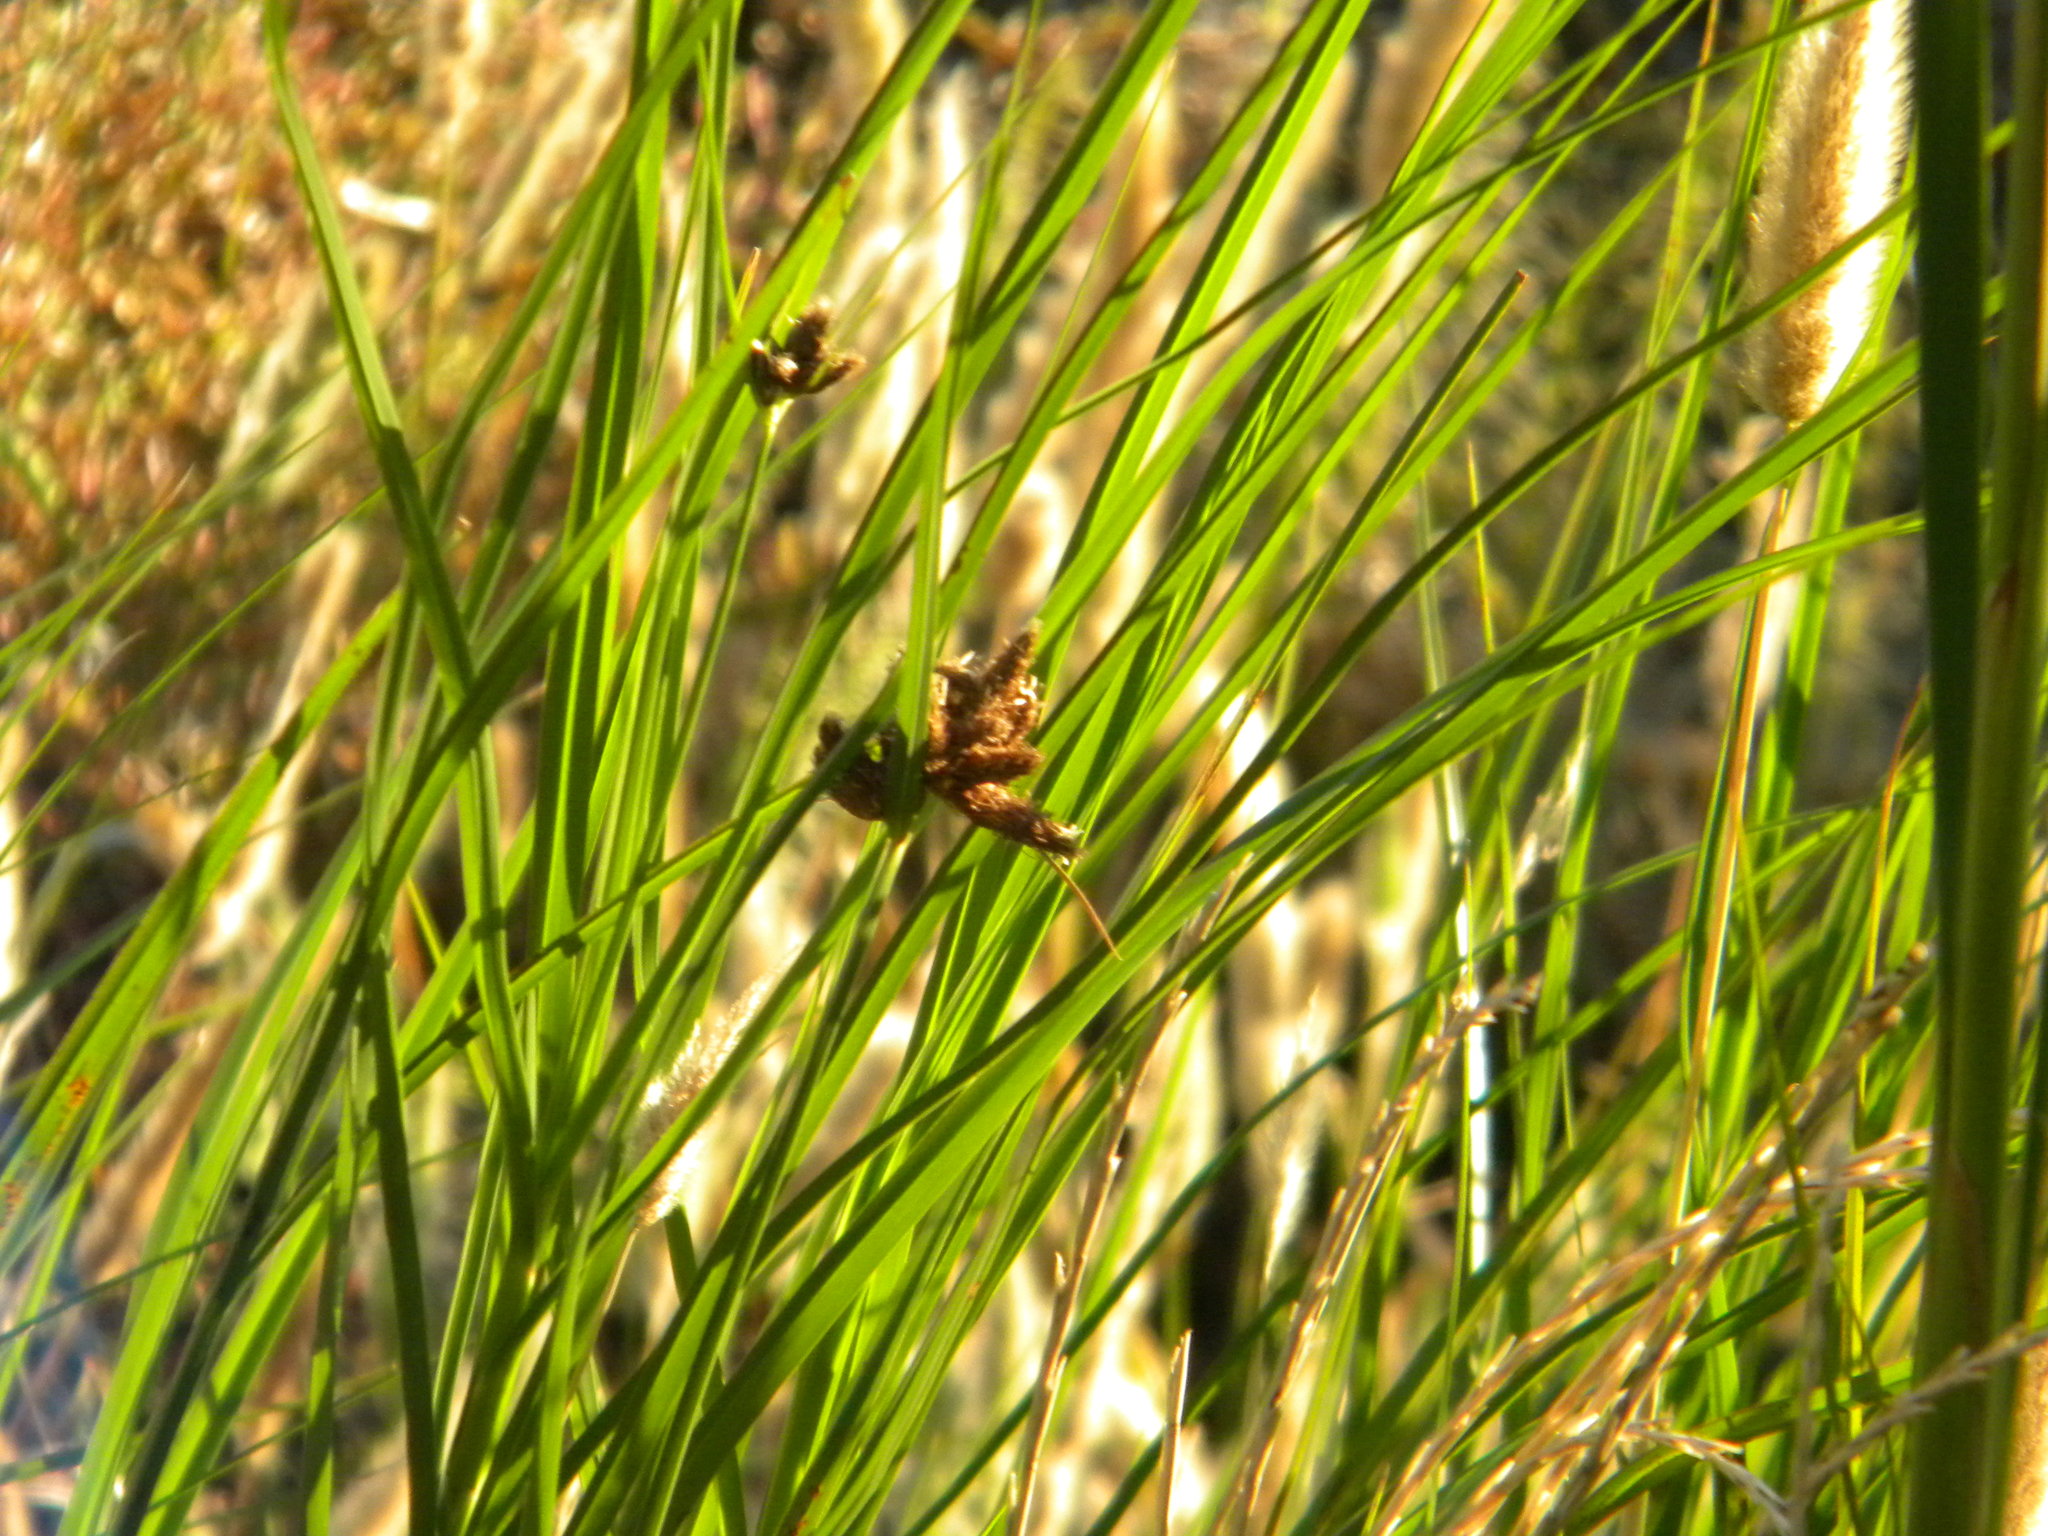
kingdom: Plantae
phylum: Tracheophyta
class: Liliopsida
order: Poales
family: Cyperaceae
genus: Bolboschoenus
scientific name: Bolboschoenus maritimus
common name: Sea club-rush
